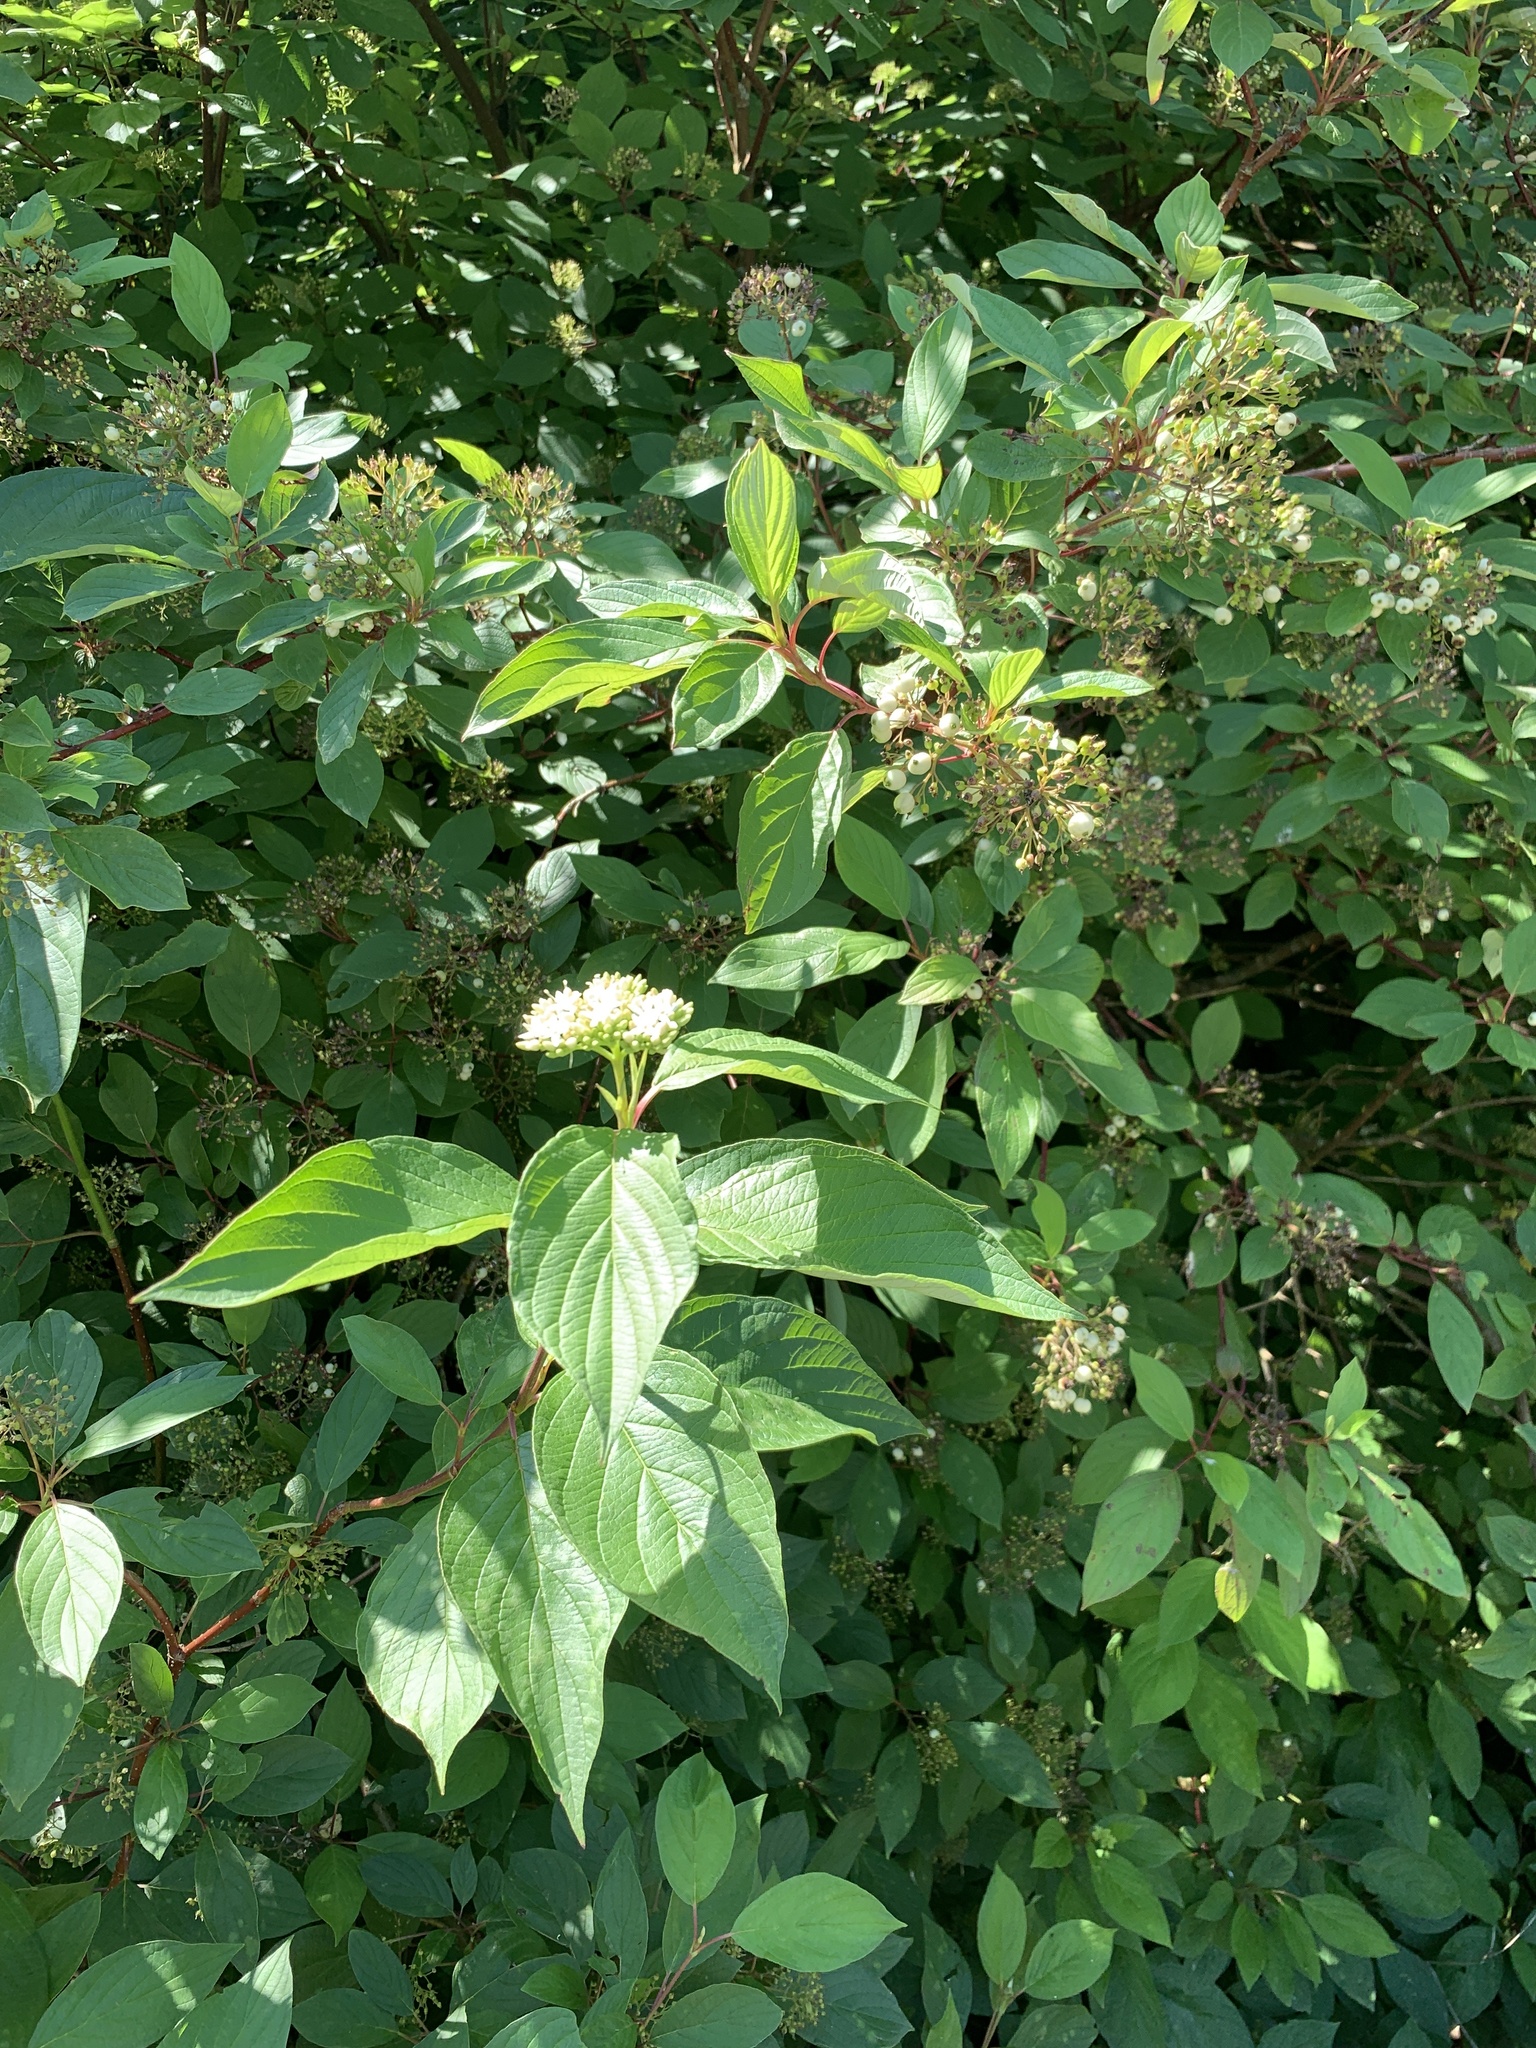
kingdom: Plantae
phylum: Tracheophyta
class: Magnoliopsida
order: Cornales
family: Cornaceae
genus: Cornus
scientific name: Cornus sanguinea
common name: Dogwood
